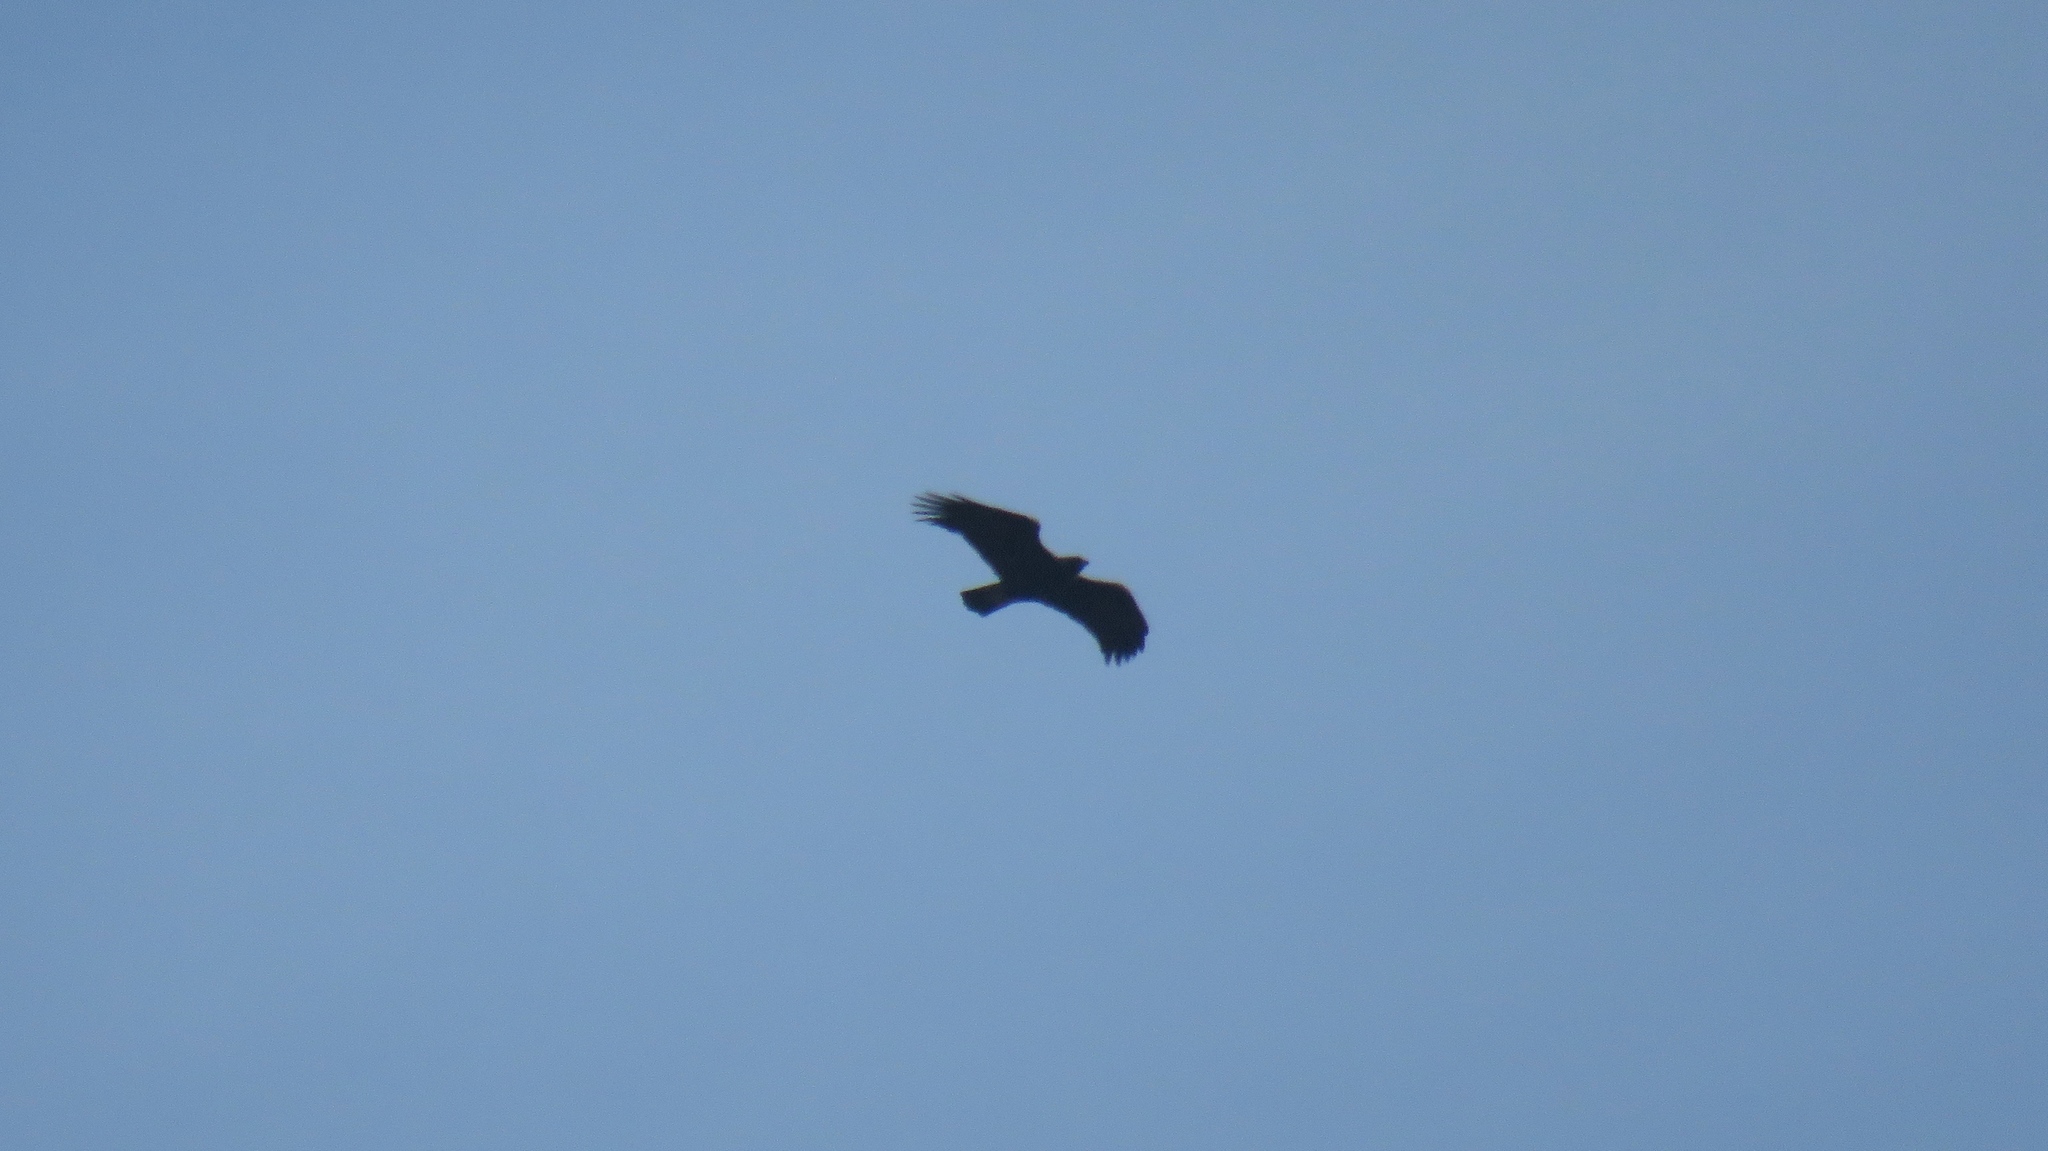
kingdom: Animalia
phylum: Chordata
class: Aves
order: Accipitriformes
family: Accipitridae
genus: Aquila
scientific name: Aquila chrysaetos
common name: Golden eagle
